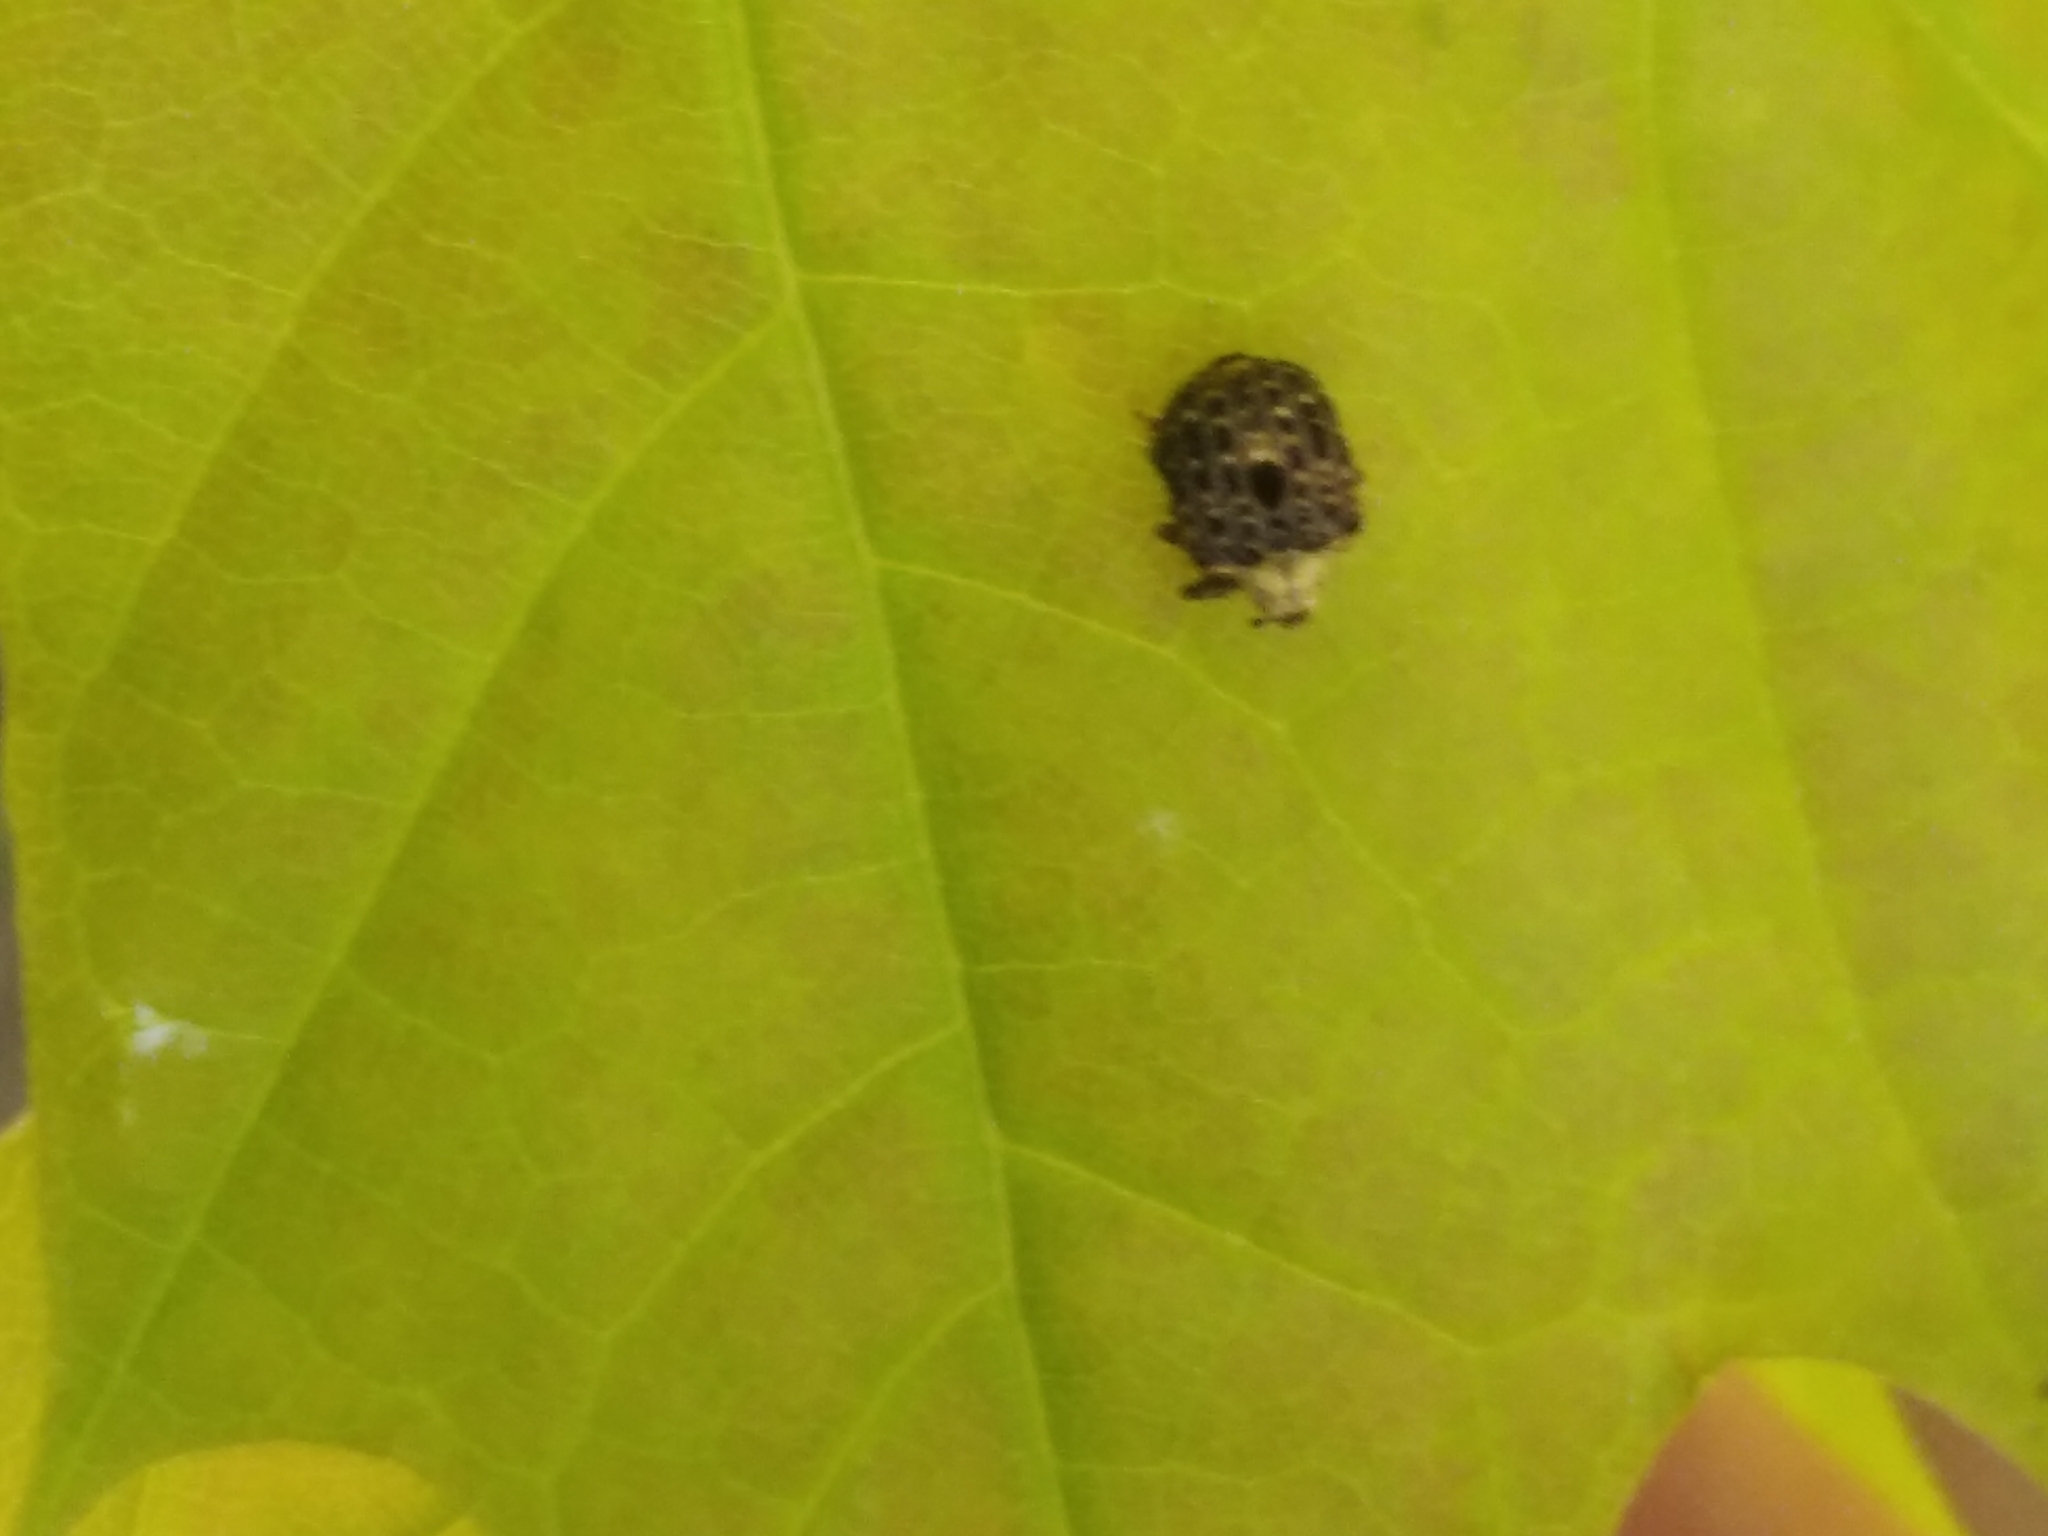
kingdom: Animalia
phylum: Arthropoda
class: Insecta
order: Coleoptera
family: Curculionidae
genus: Cionus
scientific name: Cionus scrophulariae
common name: Common figwort weevil
